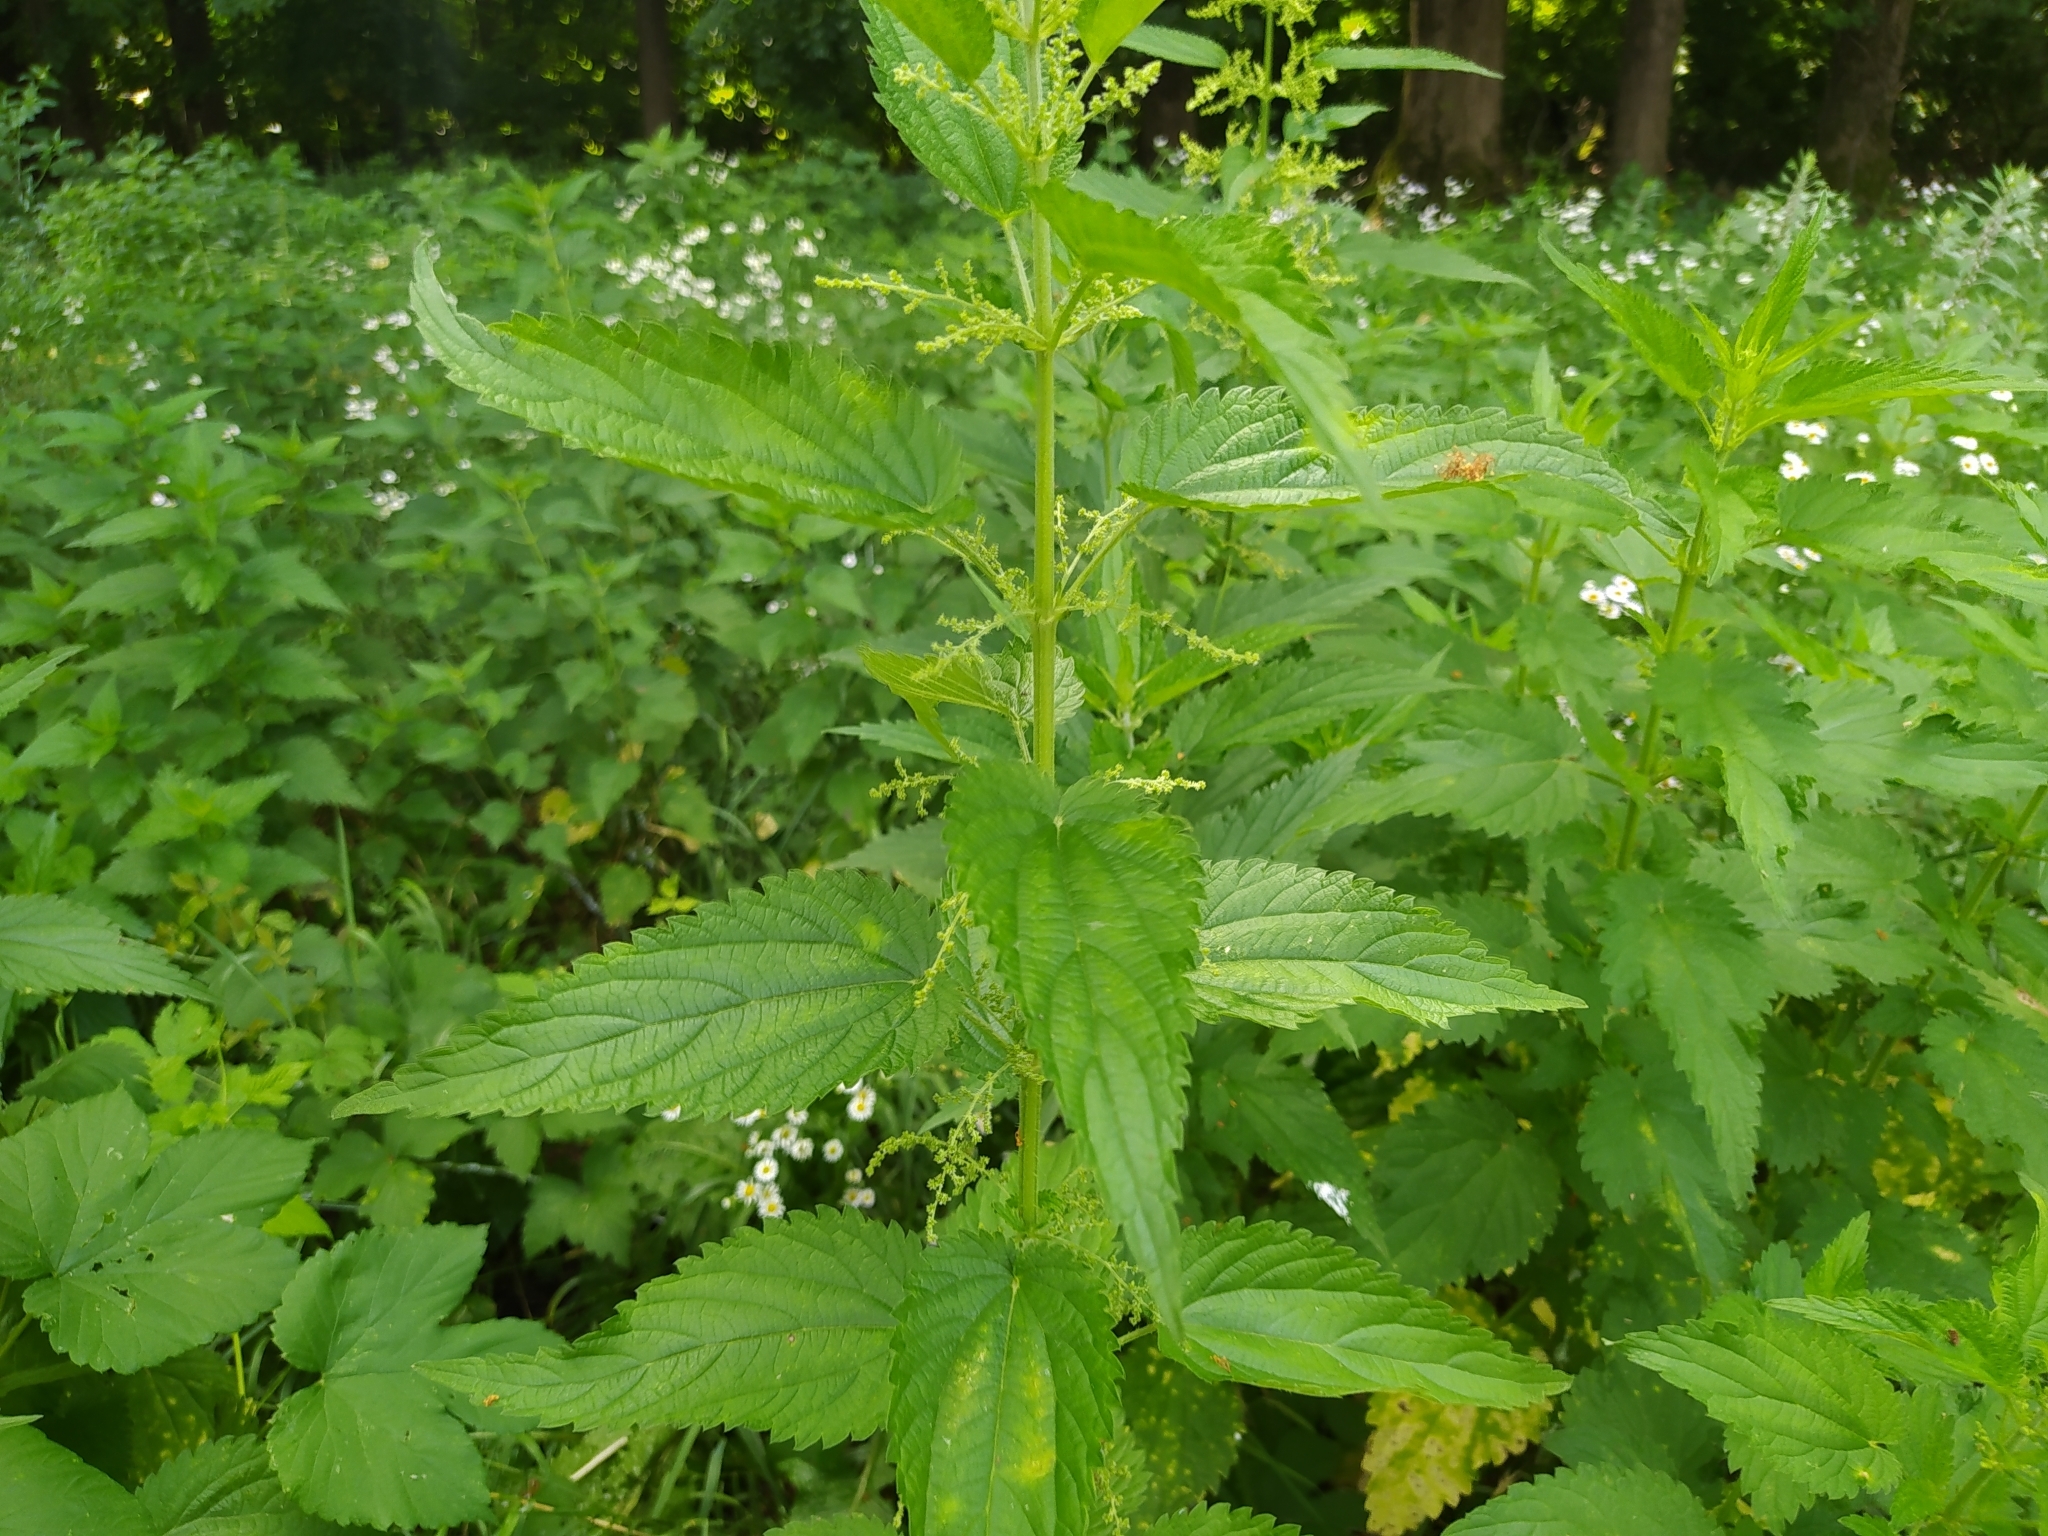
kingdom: Plantae
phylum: Tracheophyta
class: Magnoliopsida
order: Rosales
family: Urticaceae
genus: Urtica
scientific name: Urtica dioica
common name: Common nettle
